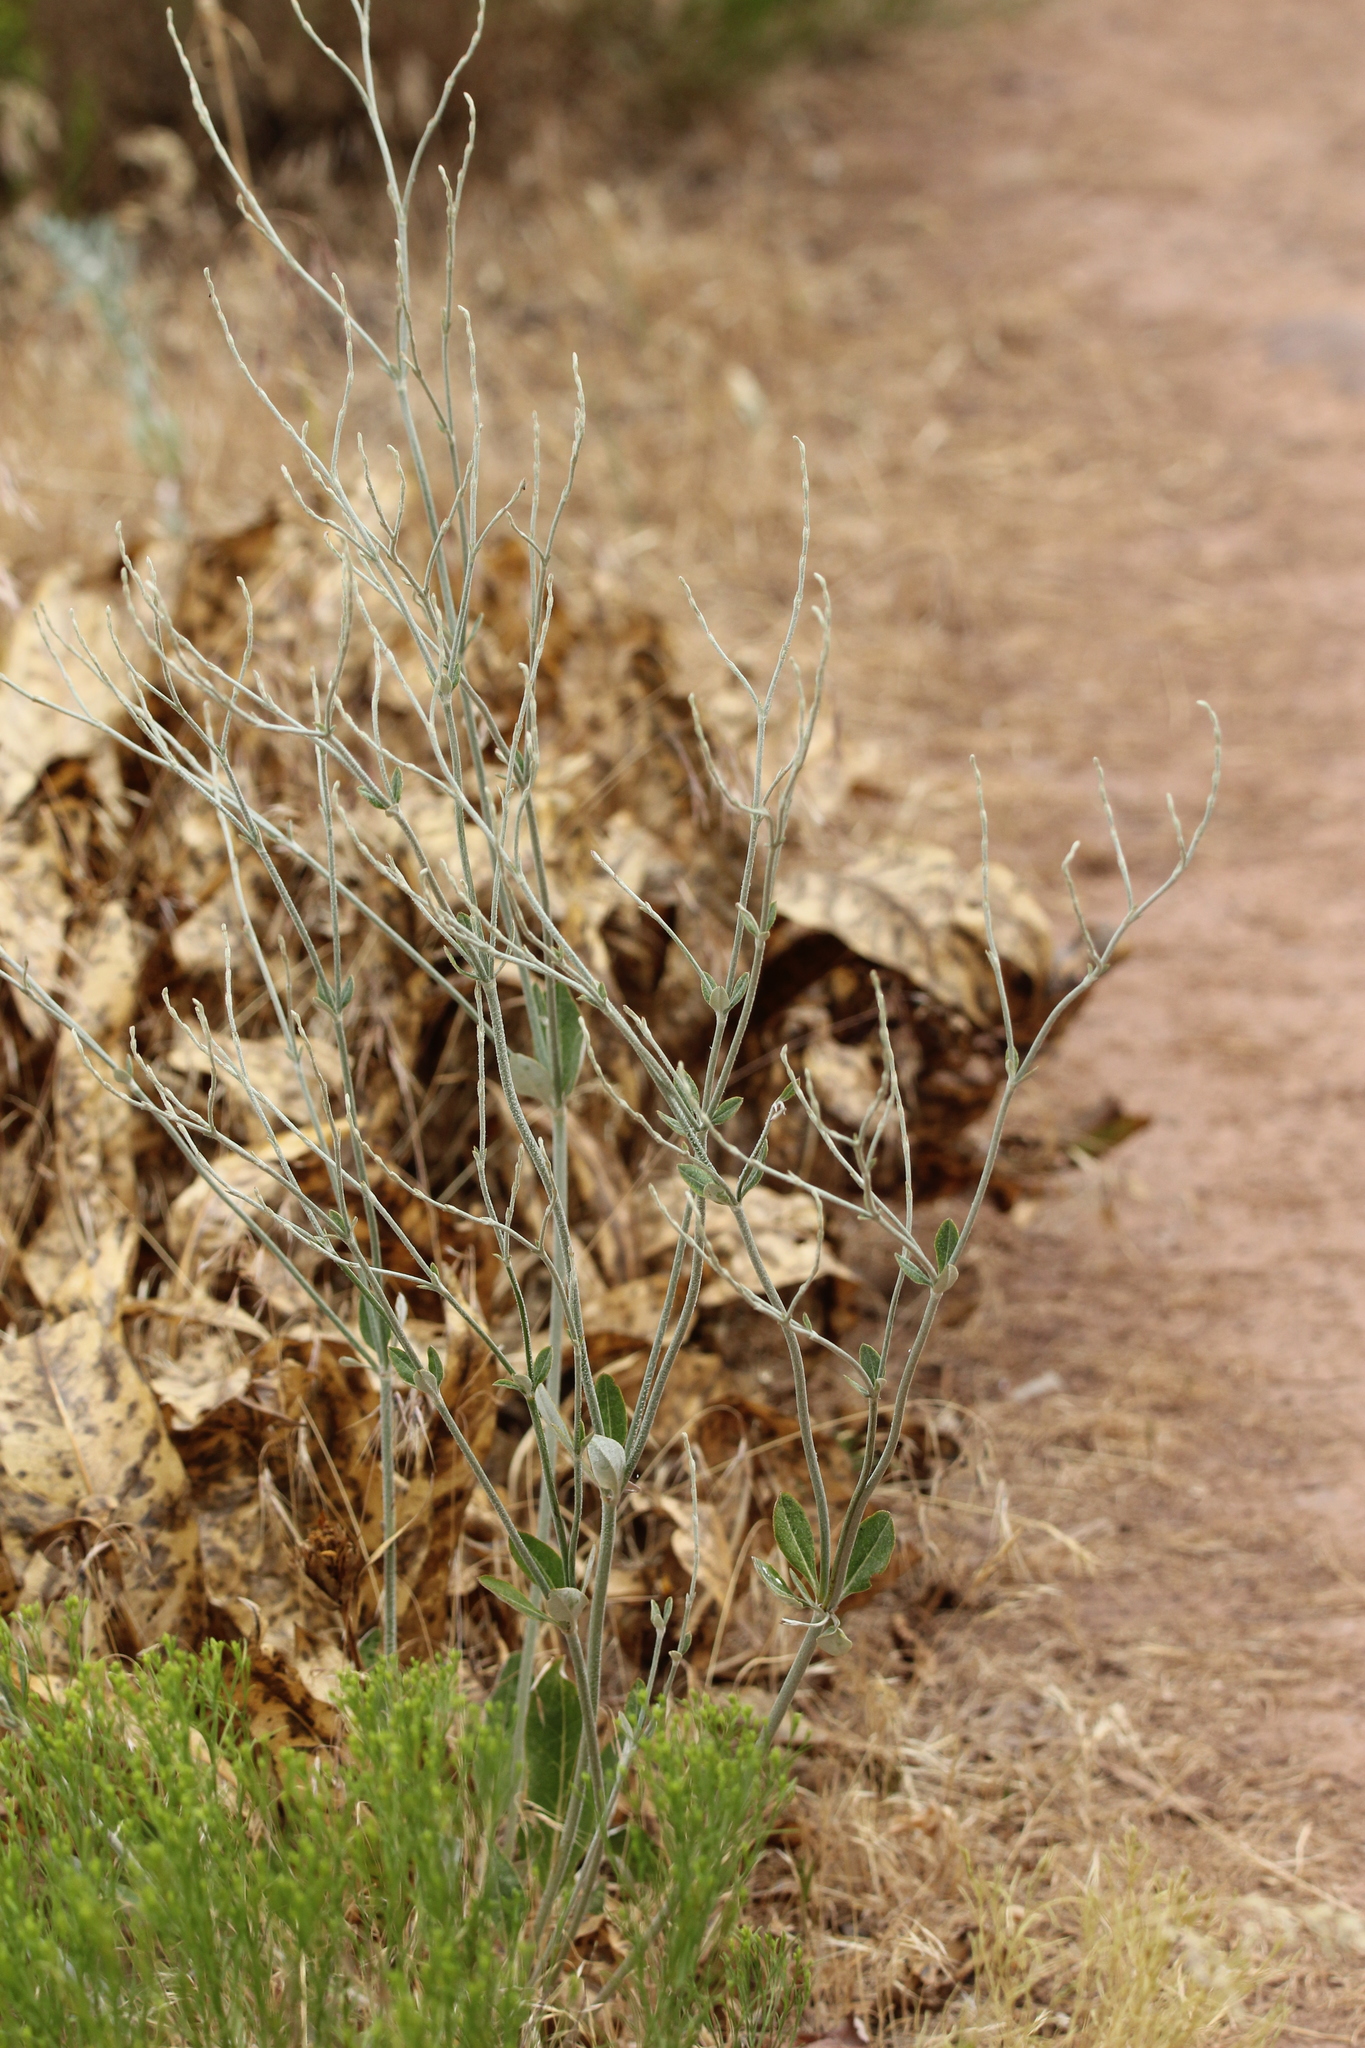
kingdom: Plantae
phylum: Tracheophyta
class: Magnoliopsida
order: Caryophyllales
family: Polygonaceae
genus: Eriogonum
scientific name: Eriogonum racemosum
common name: Redroot wild buckwheat
